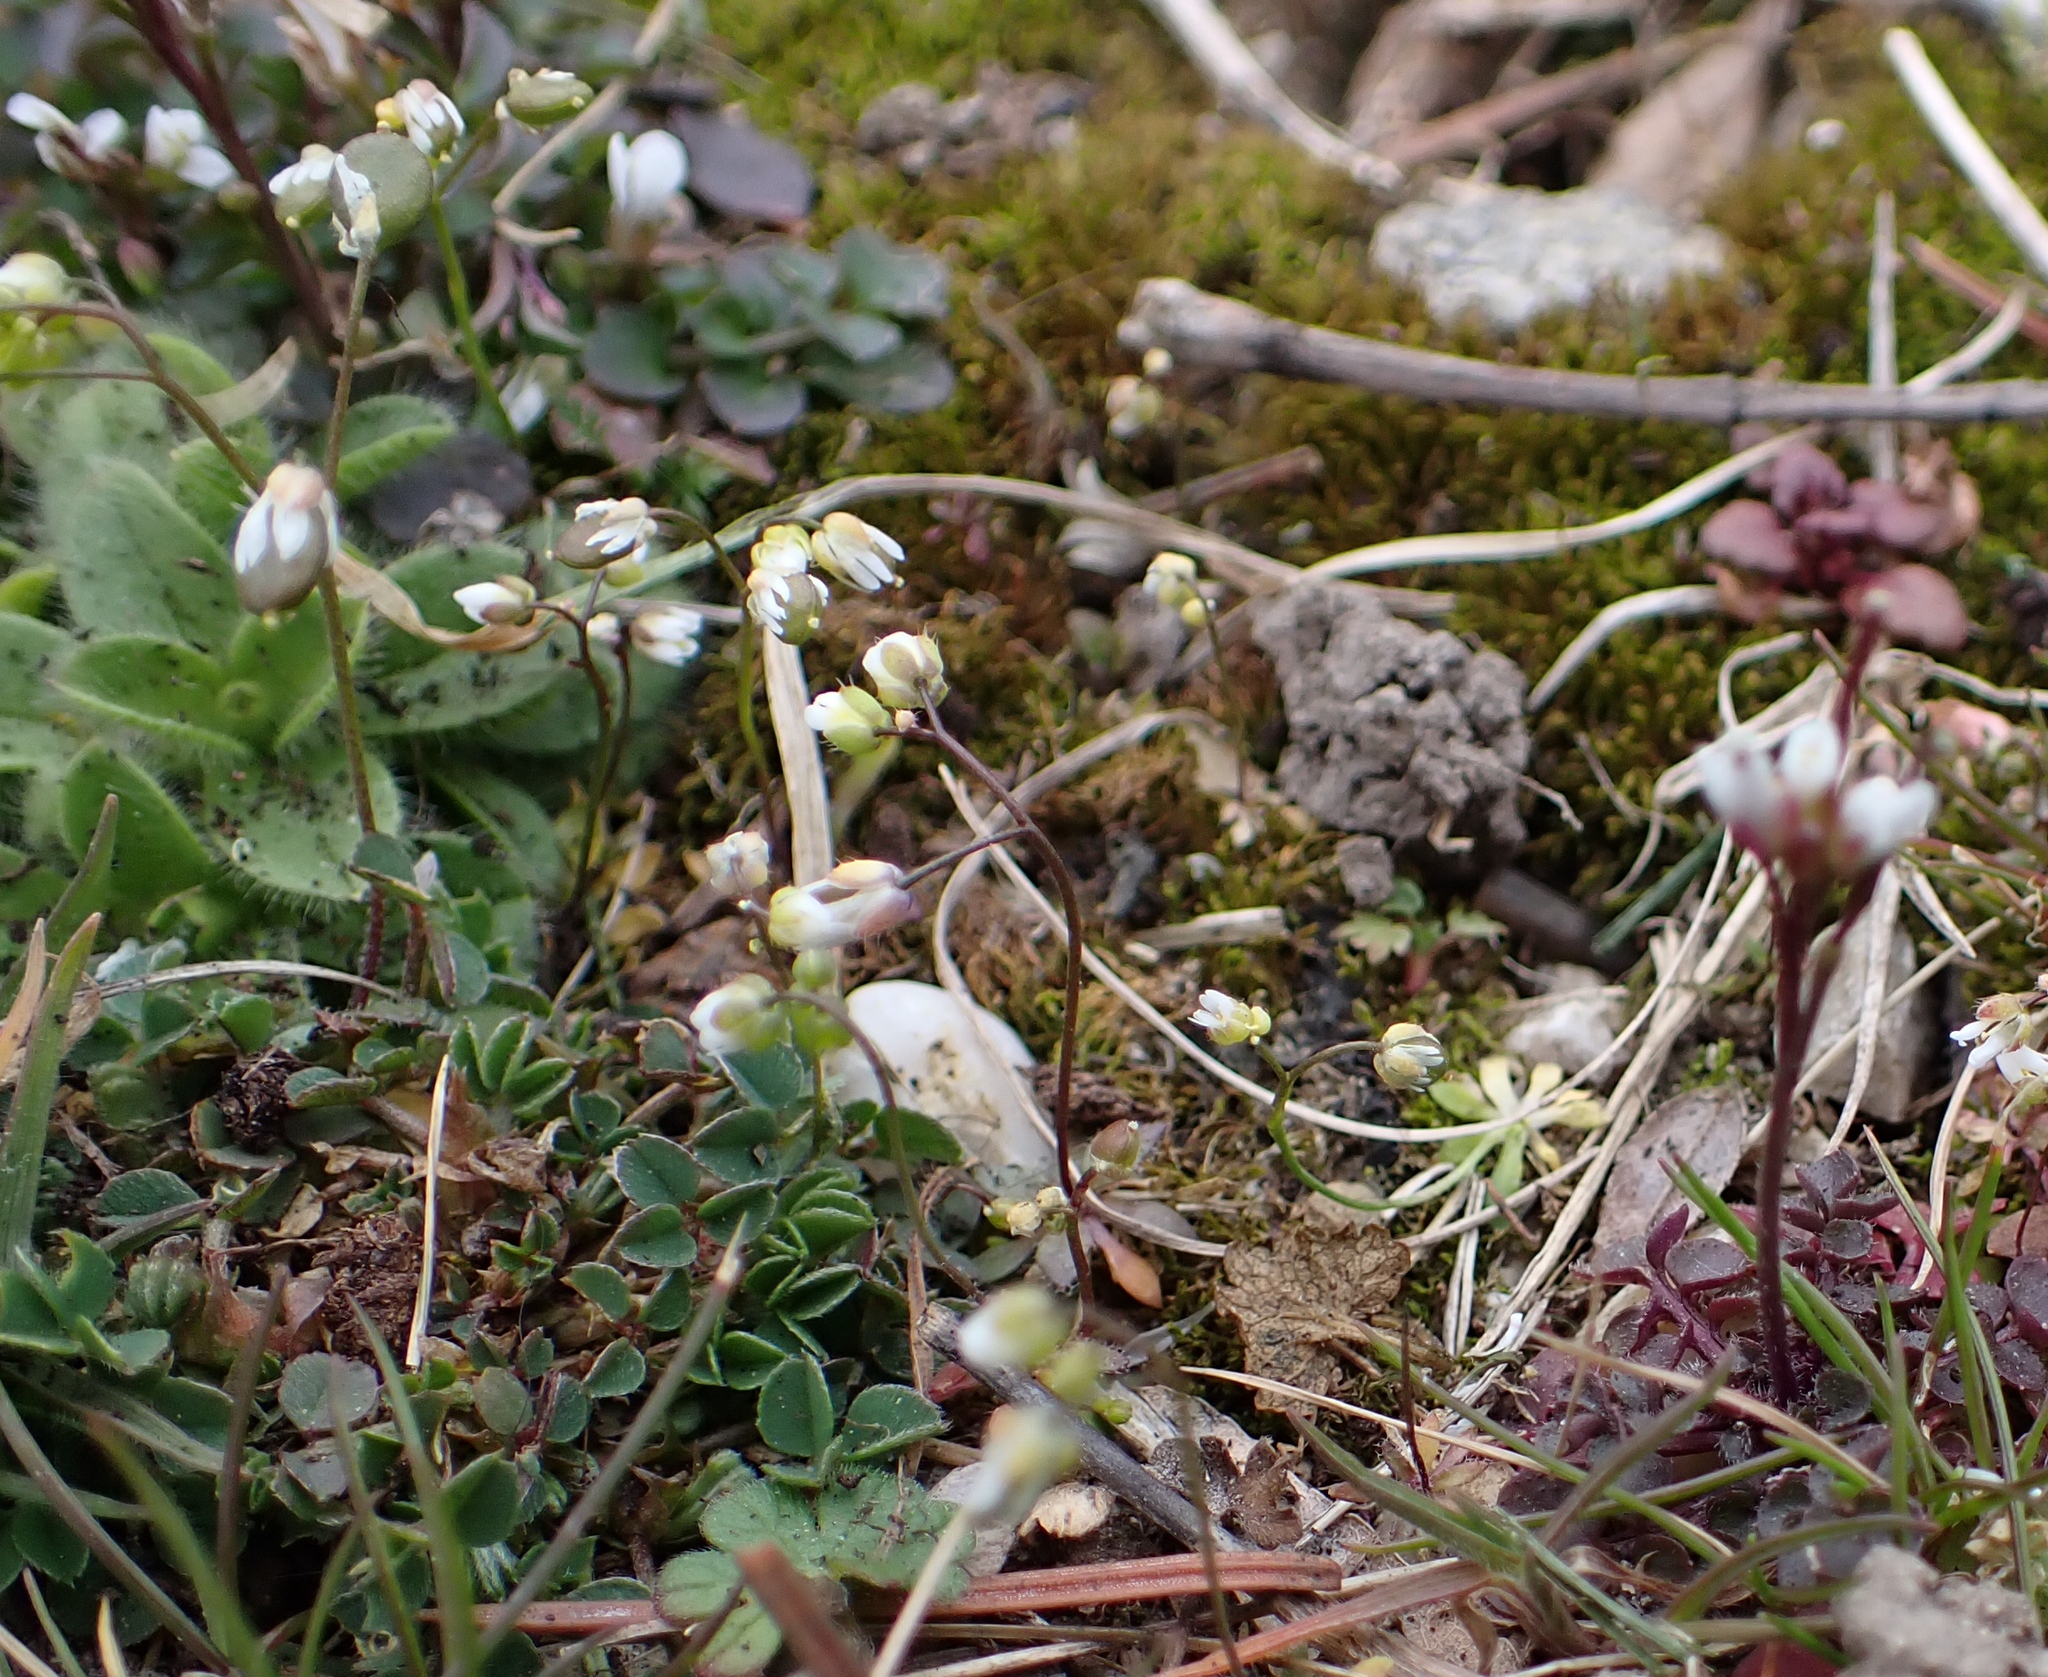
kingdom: Plantae
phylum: Tracheophyta
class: Magnoliopsida
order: Brassicales
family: Brassicaceae
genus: Draba
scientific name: Draba verna
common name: Spring draba
